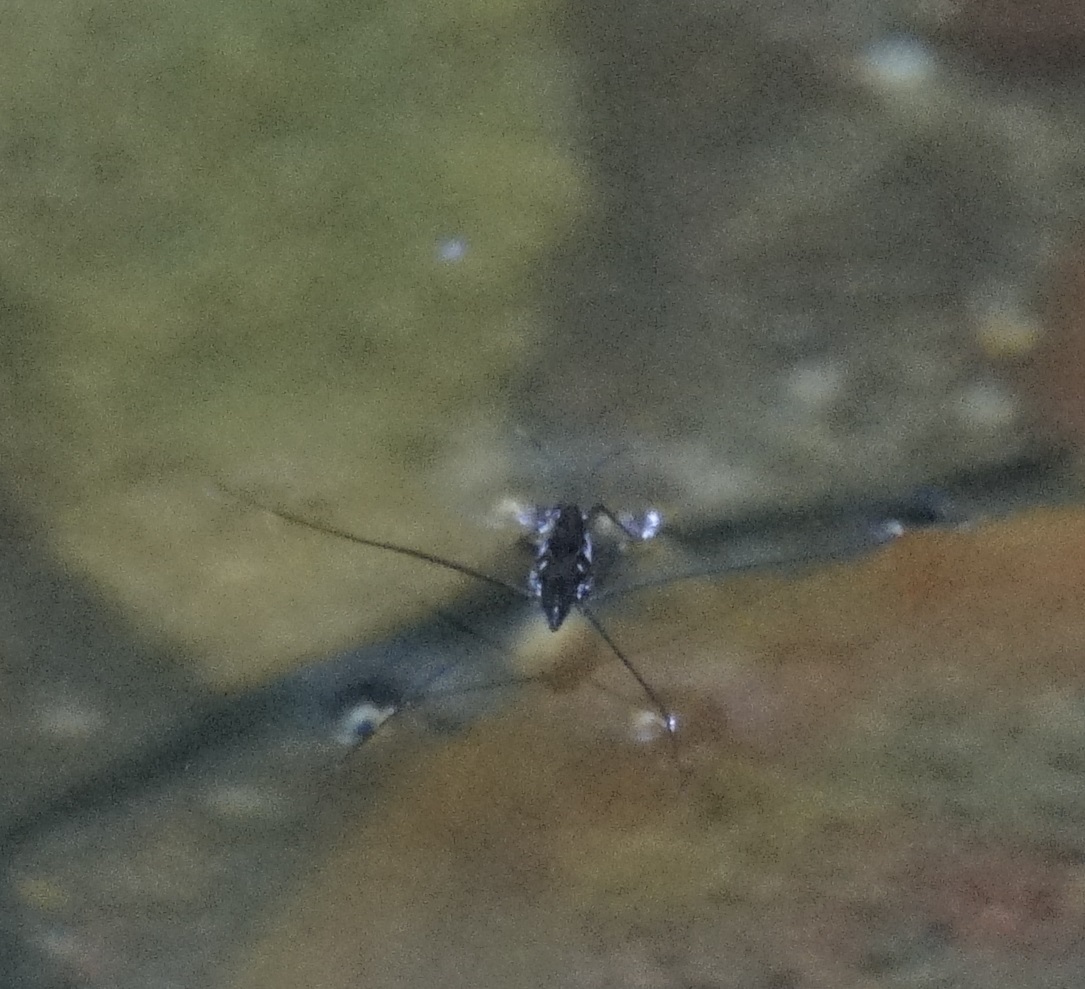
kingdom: Animalia
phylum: Arthropoda
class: Insecta
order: Hemiptera
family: Gerridae
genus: Tenagogerris
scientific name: Tenagogerris
